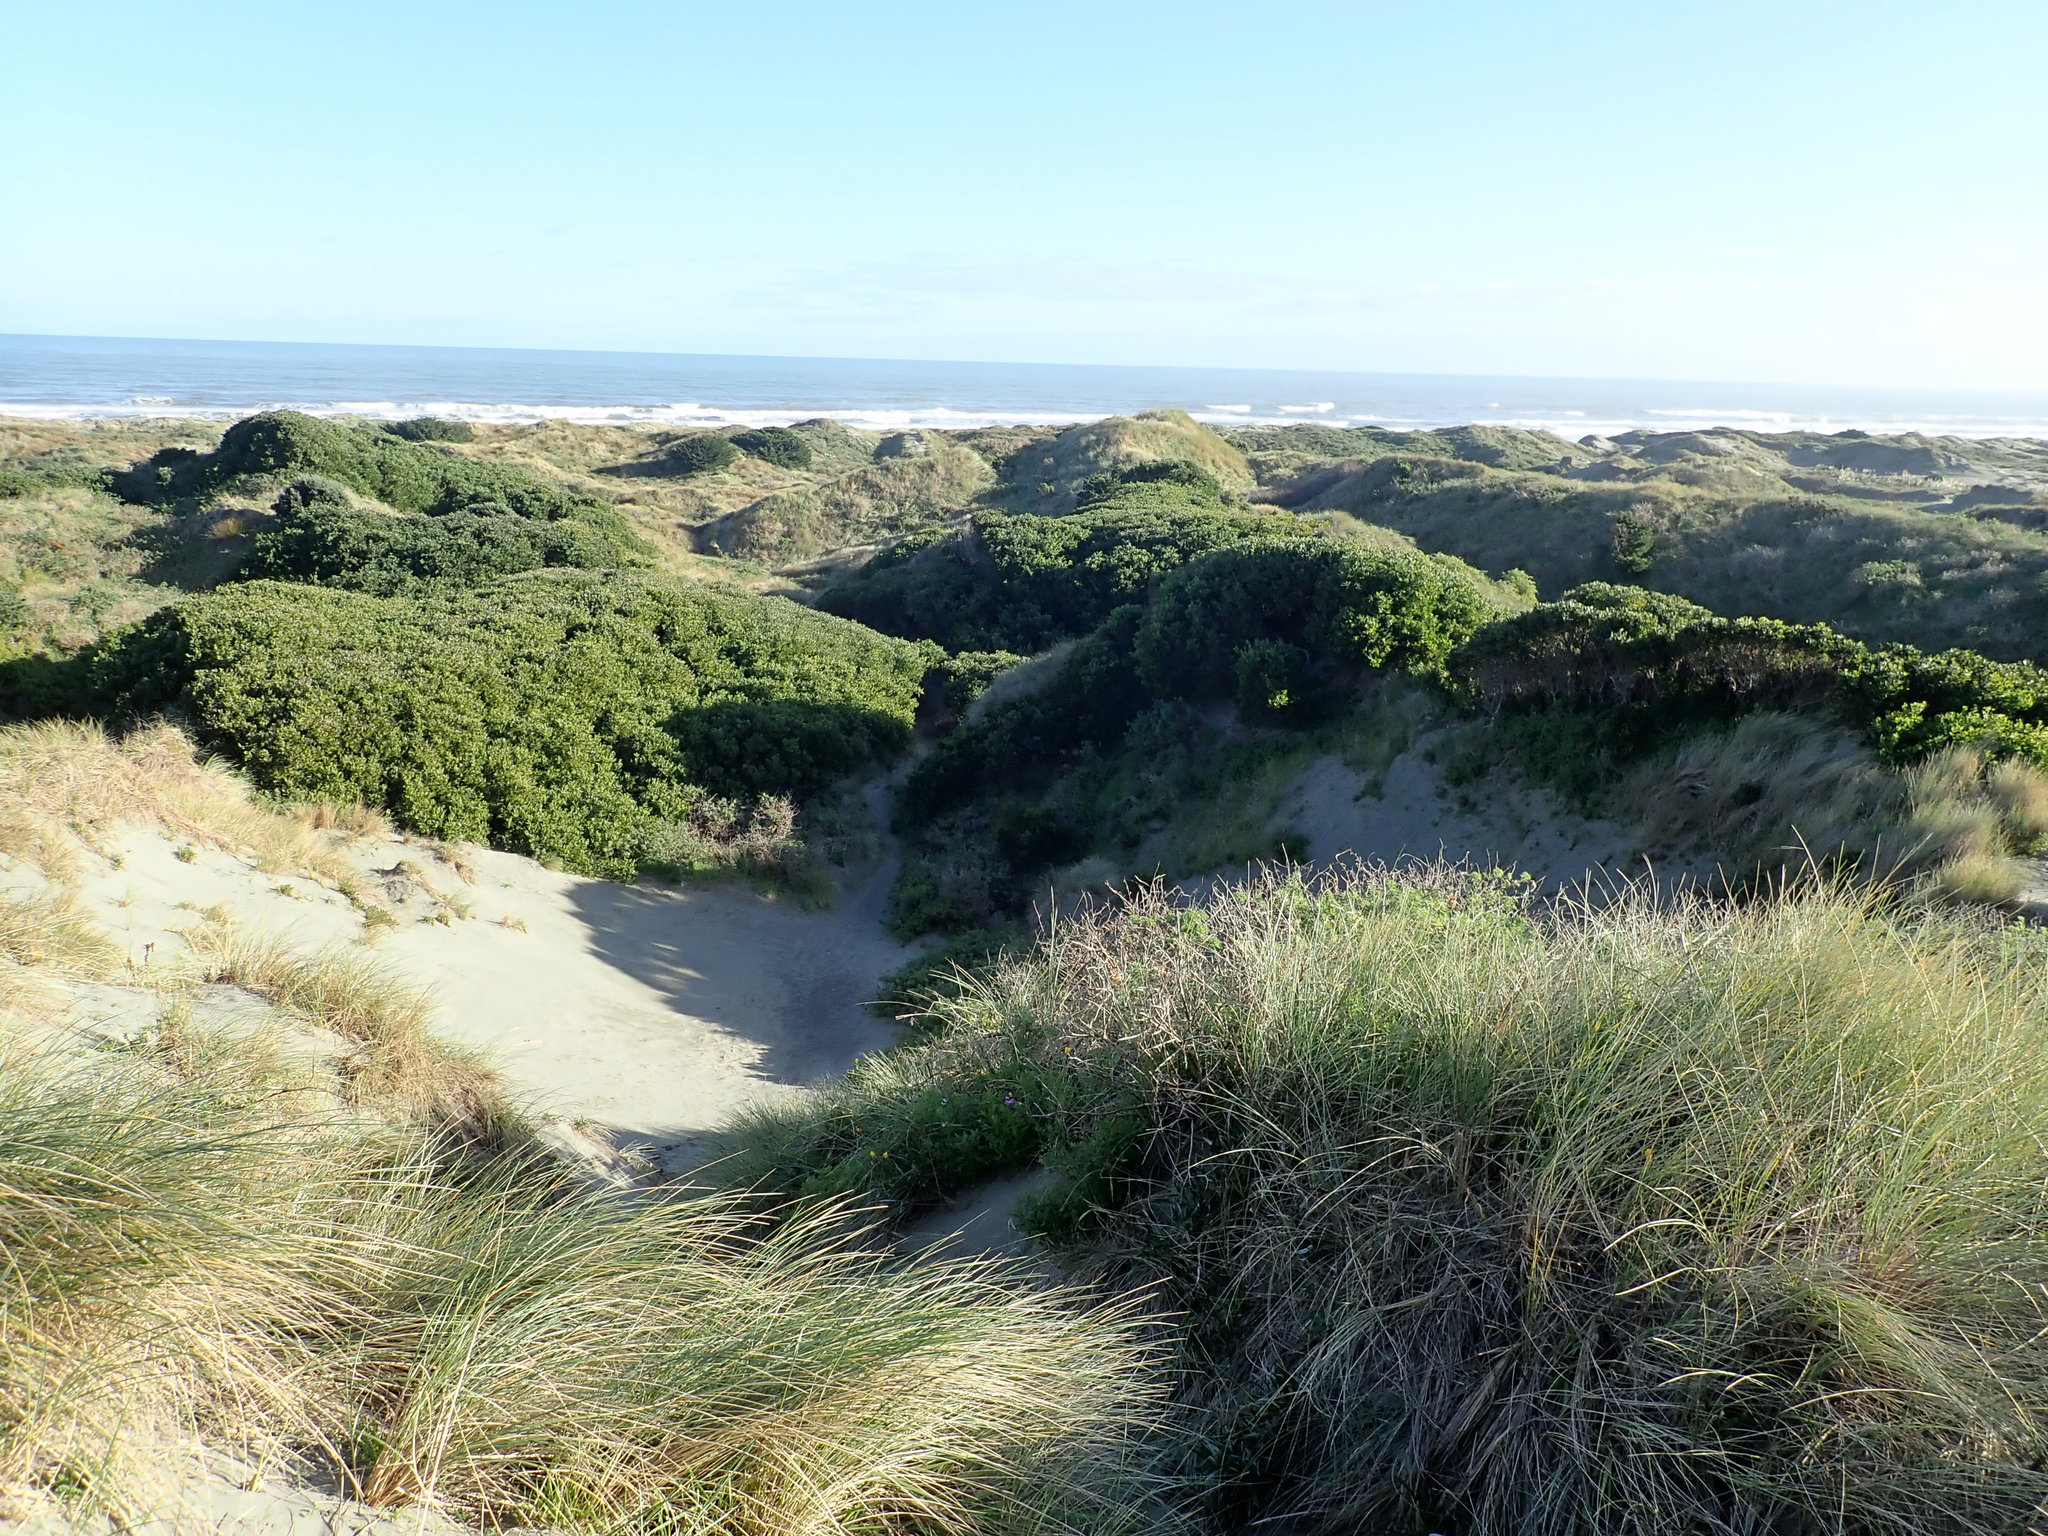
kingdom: Plantae
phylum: Tracheophyta
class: Magnoliopsida
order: Caryophyllales
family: Aizoaceae
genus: Tetragonia
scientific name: Tetragonia implexicoma
